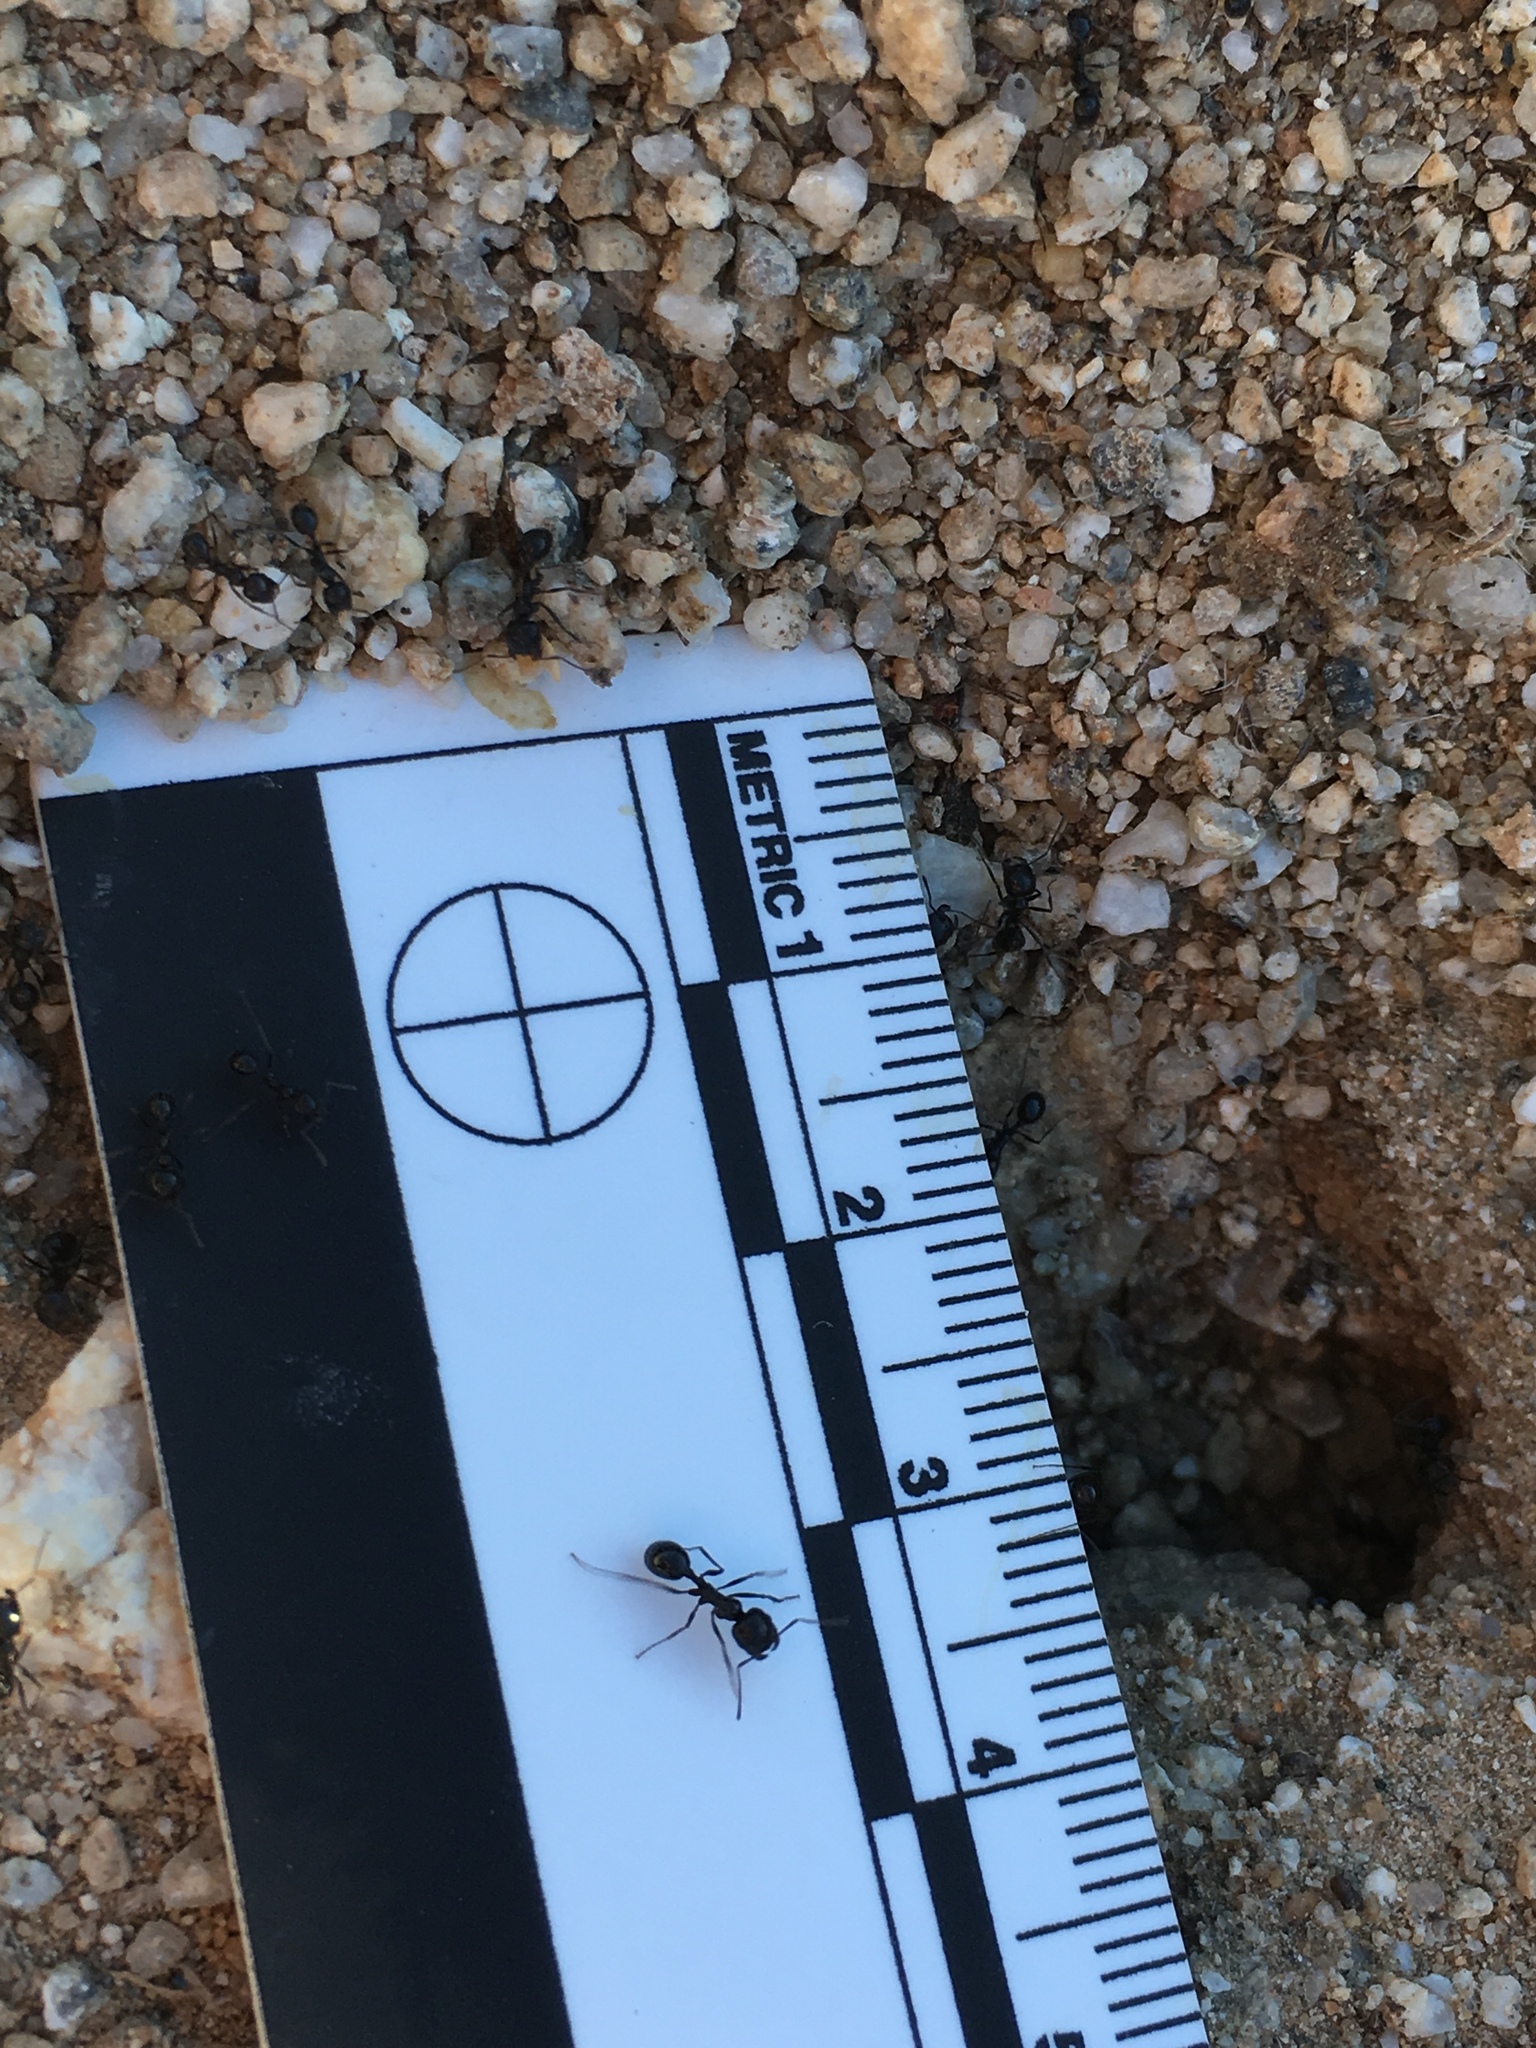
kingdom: Animalia
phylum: Arthropoda
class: Insecta
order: Hymenoptera
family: Formicidae
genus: Messor
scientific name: Messor pergandei
